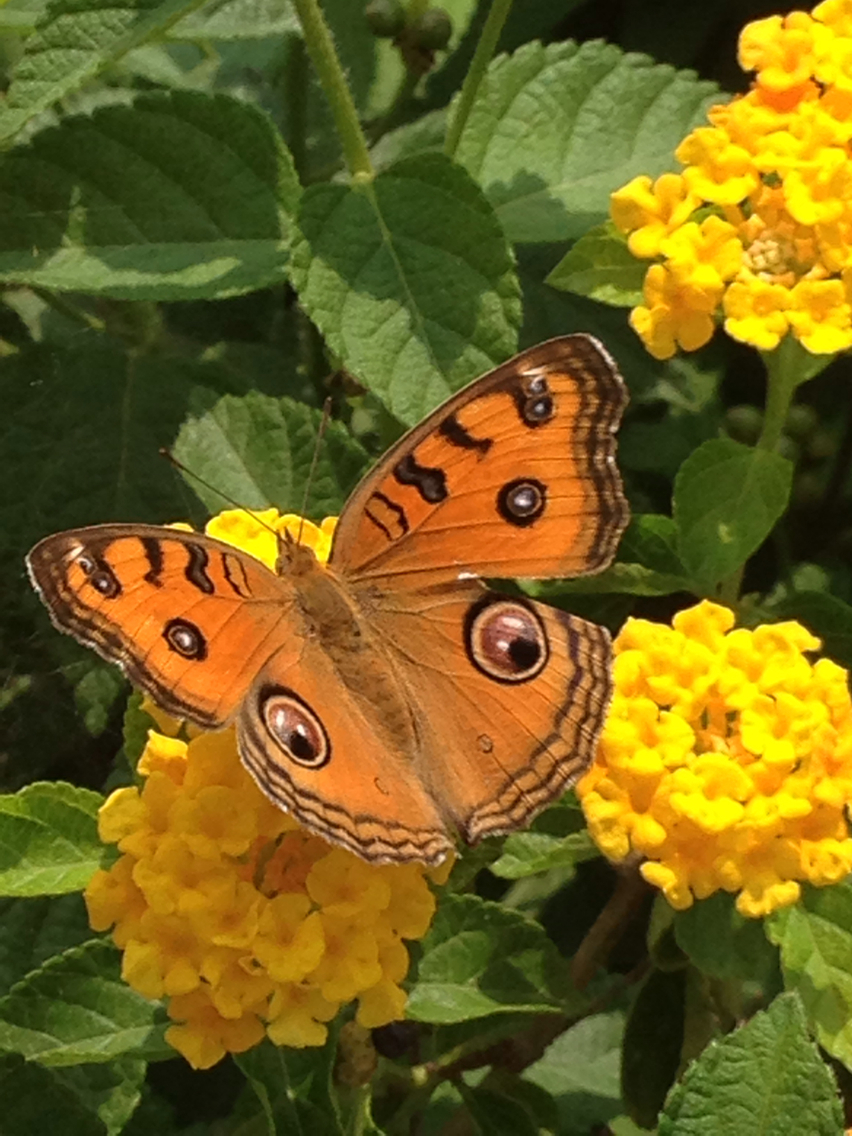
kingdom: Animalia
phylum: Arthropoda
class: Insecta
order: Lepidoptera
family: Nymphalidae
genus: Junonia
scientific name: Junonia almana
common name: Peacock pansy
